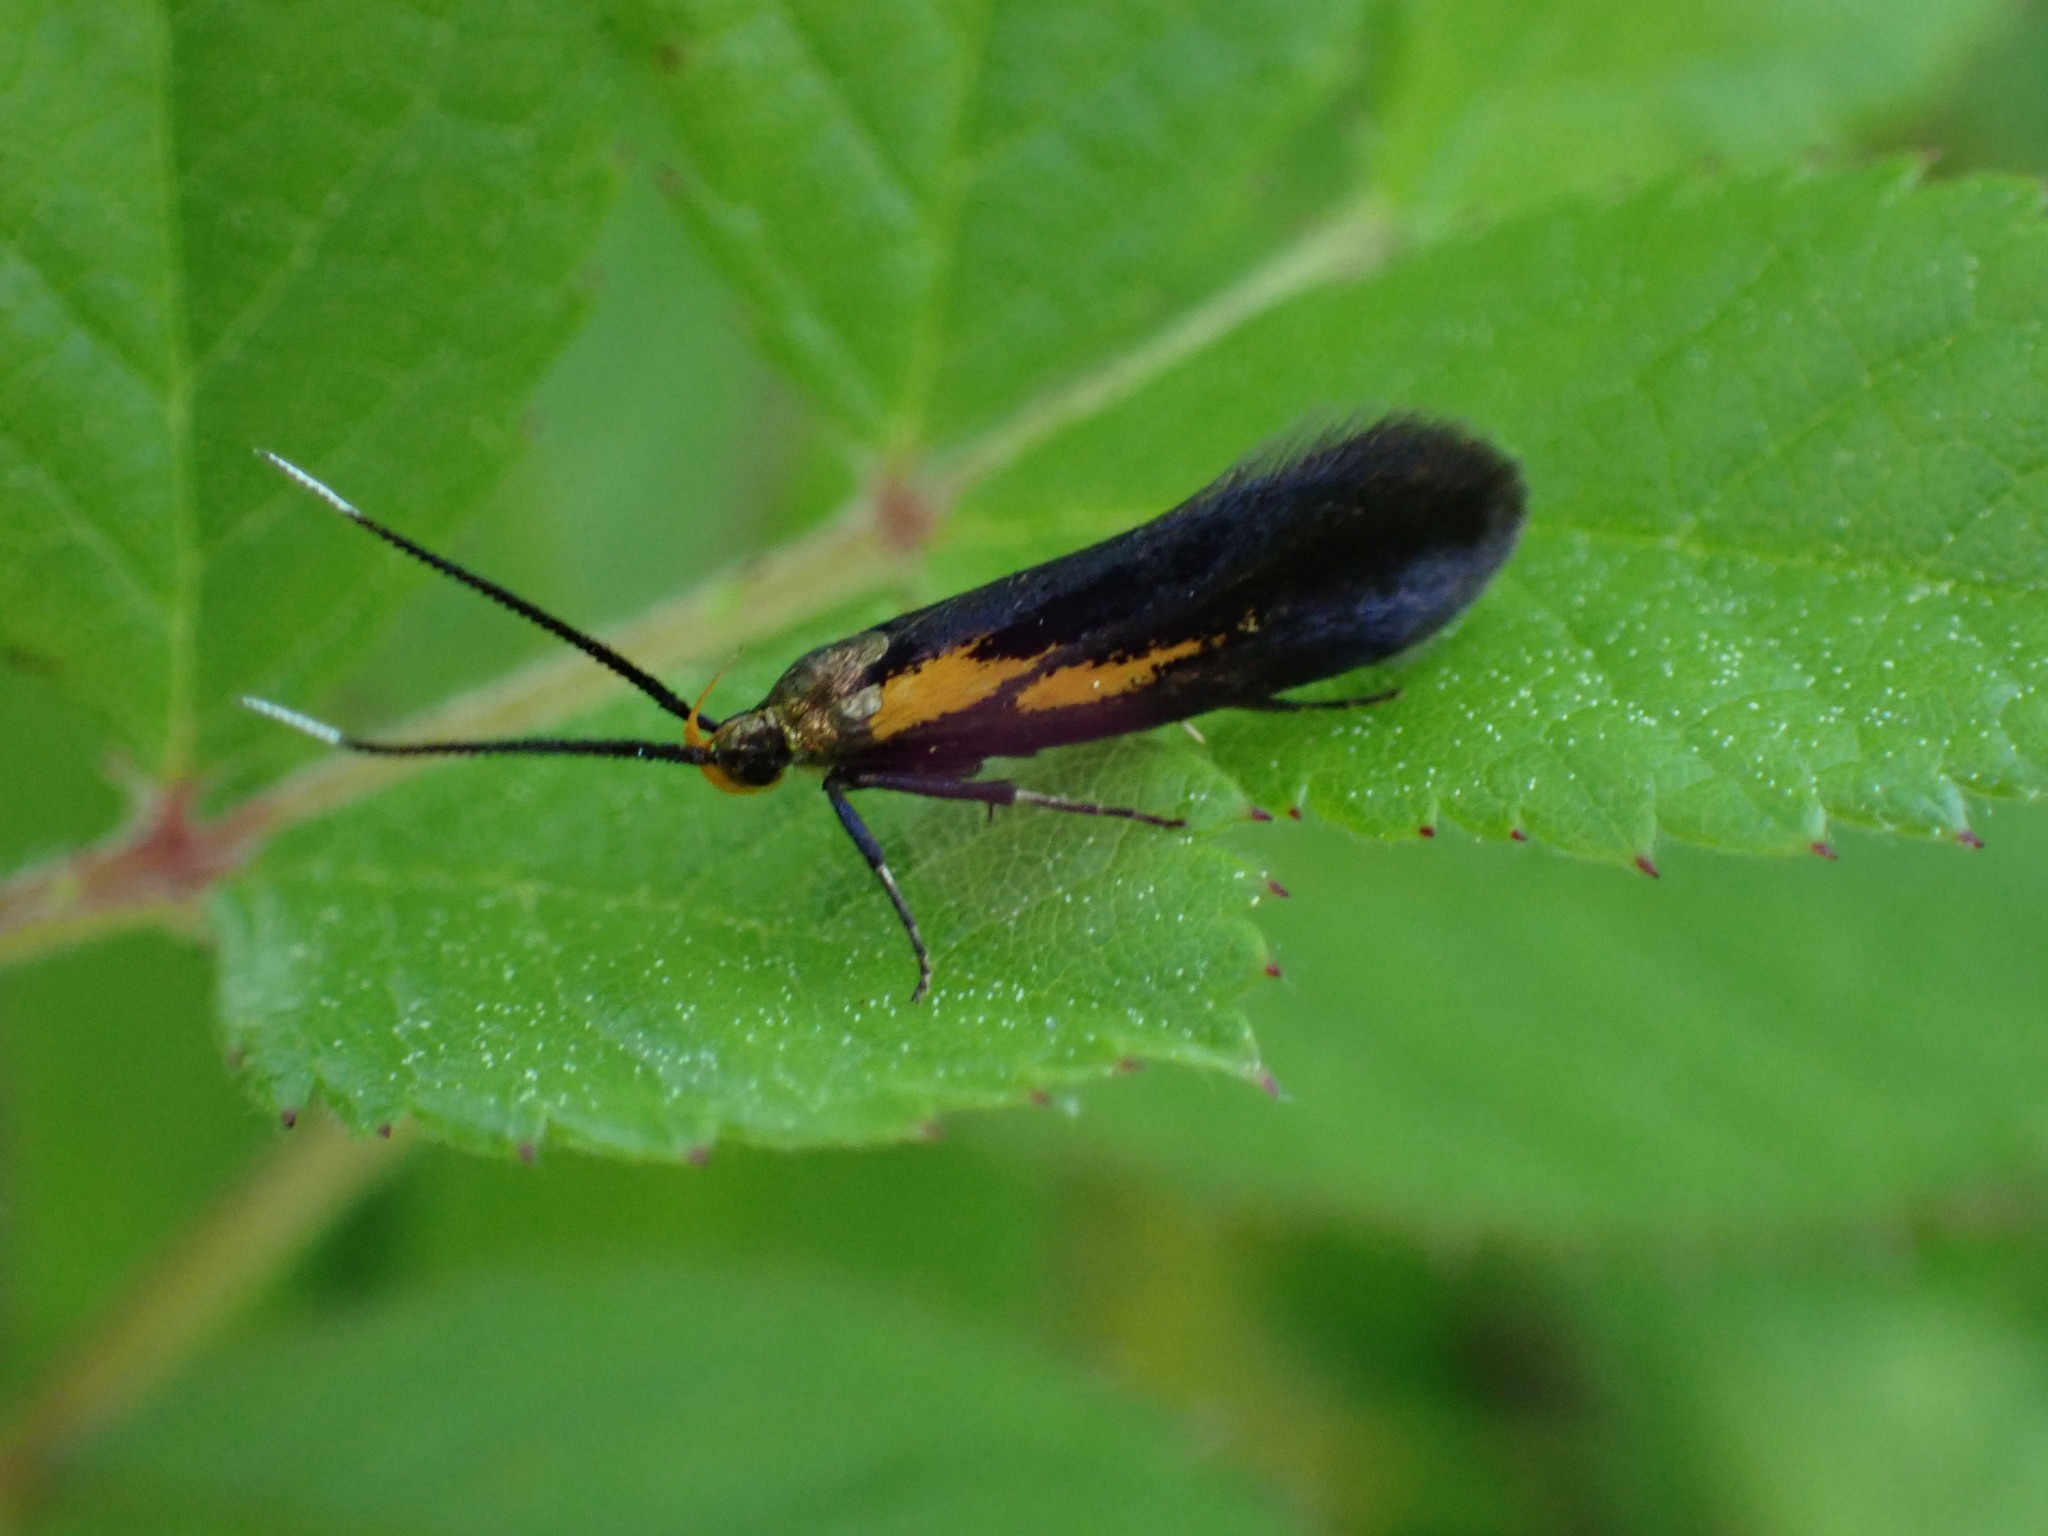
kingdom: Animalia
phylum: Arthropoda
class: Insecta
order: Lepidoptera
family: Oecophoridae
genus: Mathildana
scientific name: Mathildana newmanella
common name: Newman's mathildana moth
